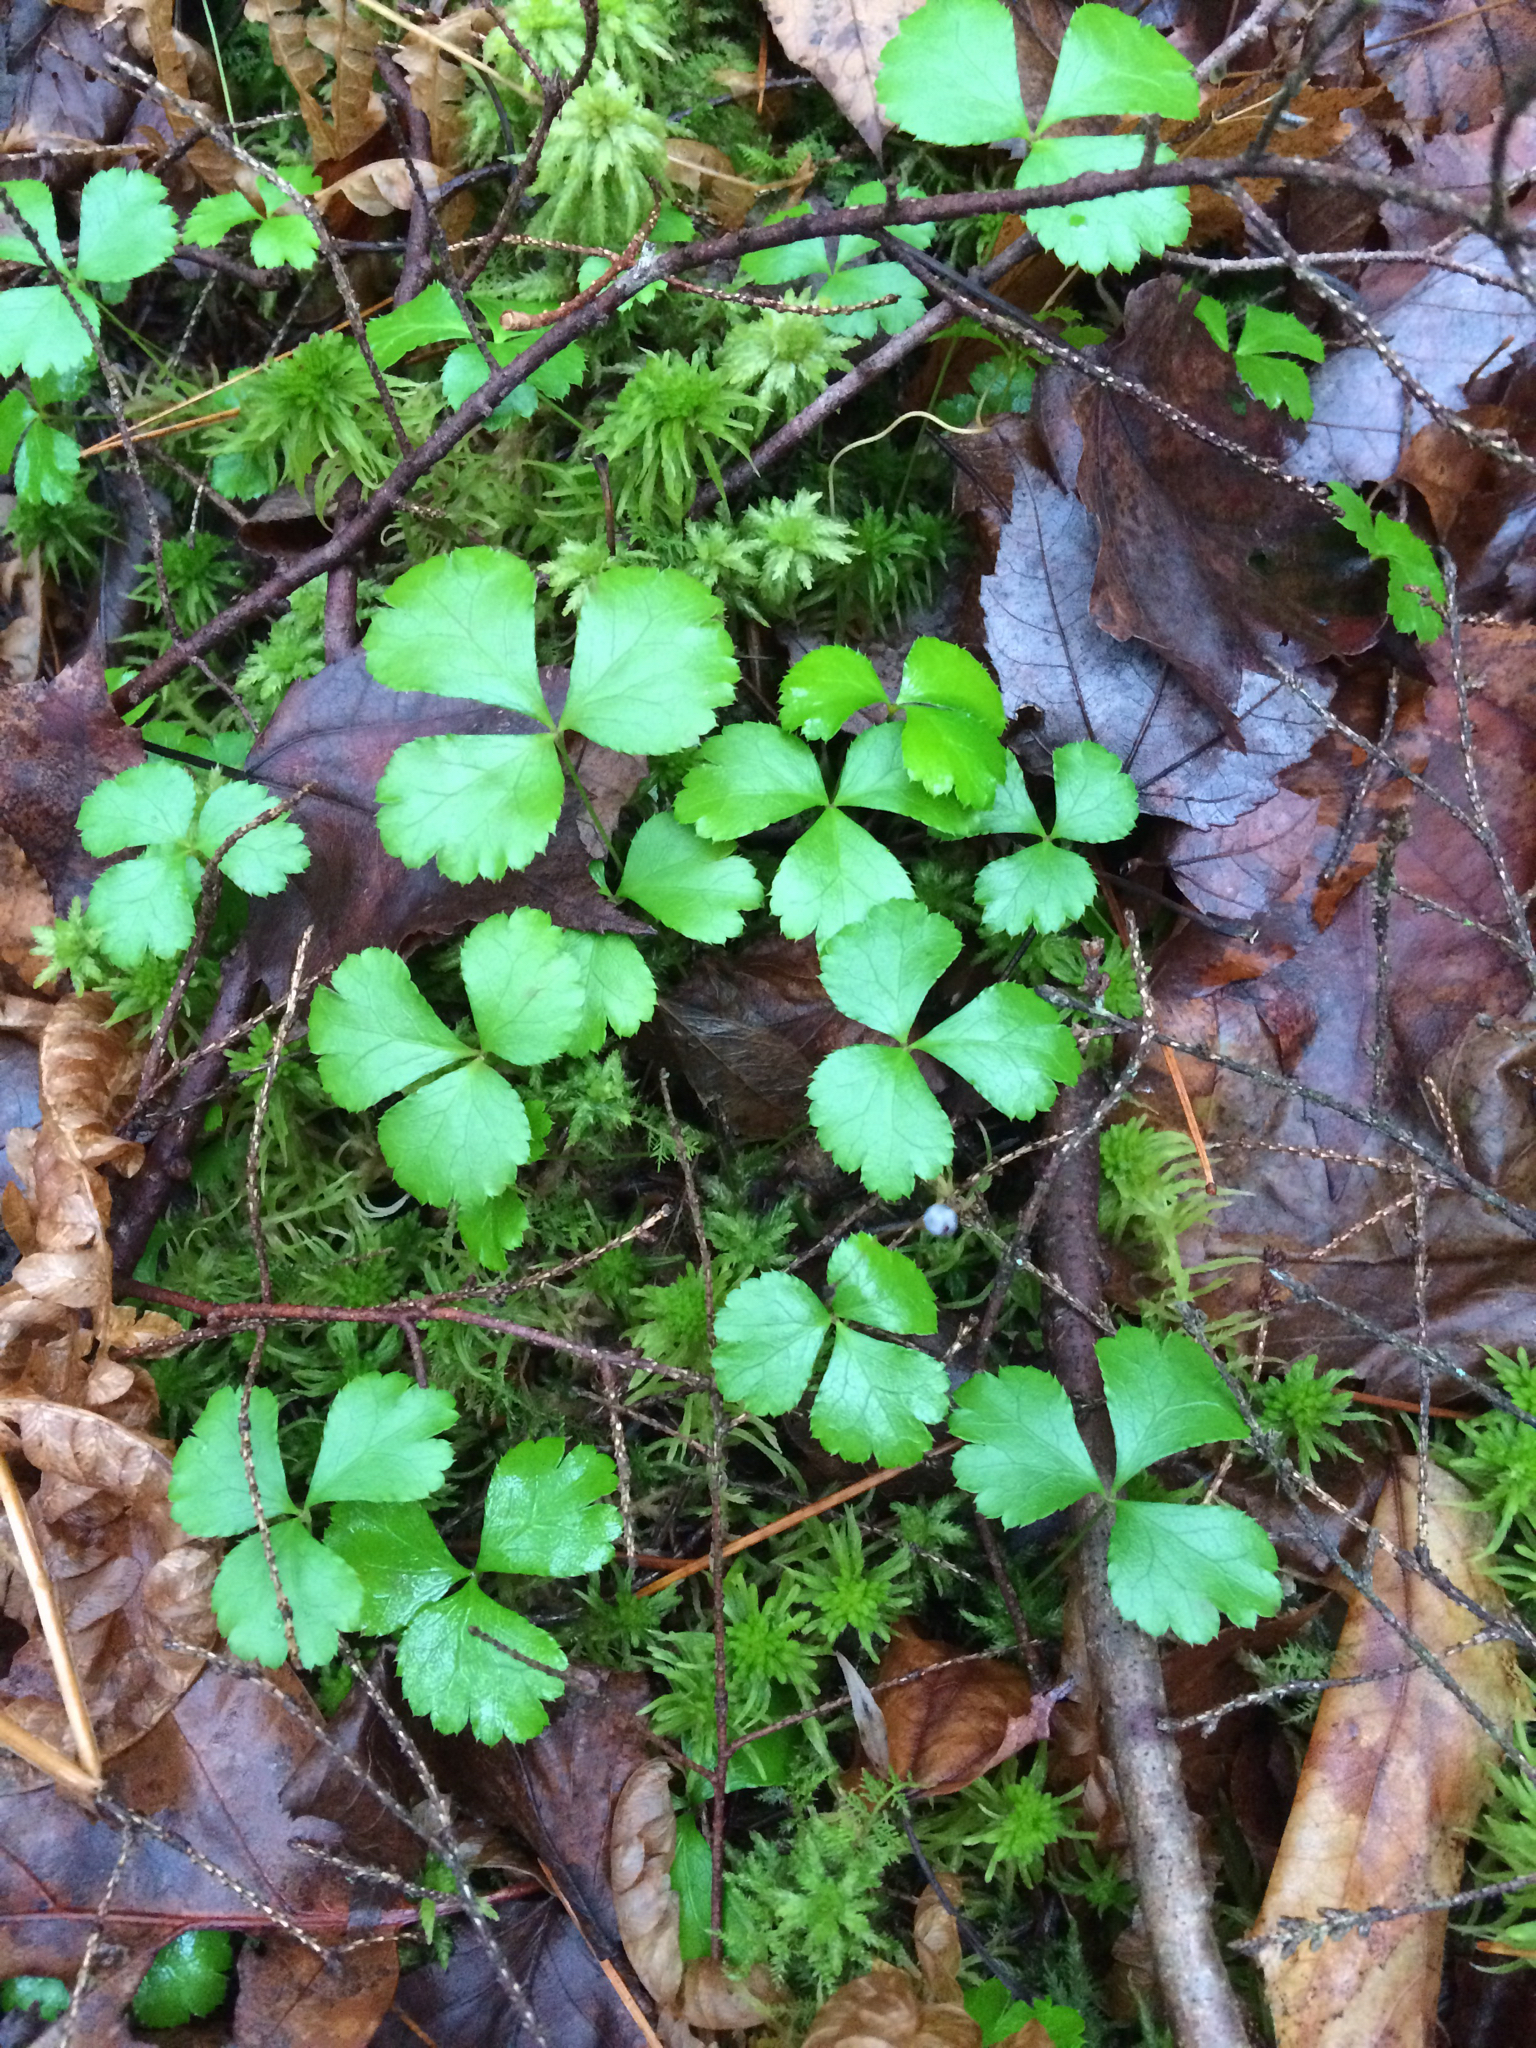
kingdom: Plantae
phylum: Tracheophyta
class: Magnoliopsida
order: Ranunculales
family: Ranunculaceae
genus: Coptis
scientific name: Coptis trifolia
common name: Canker-root
